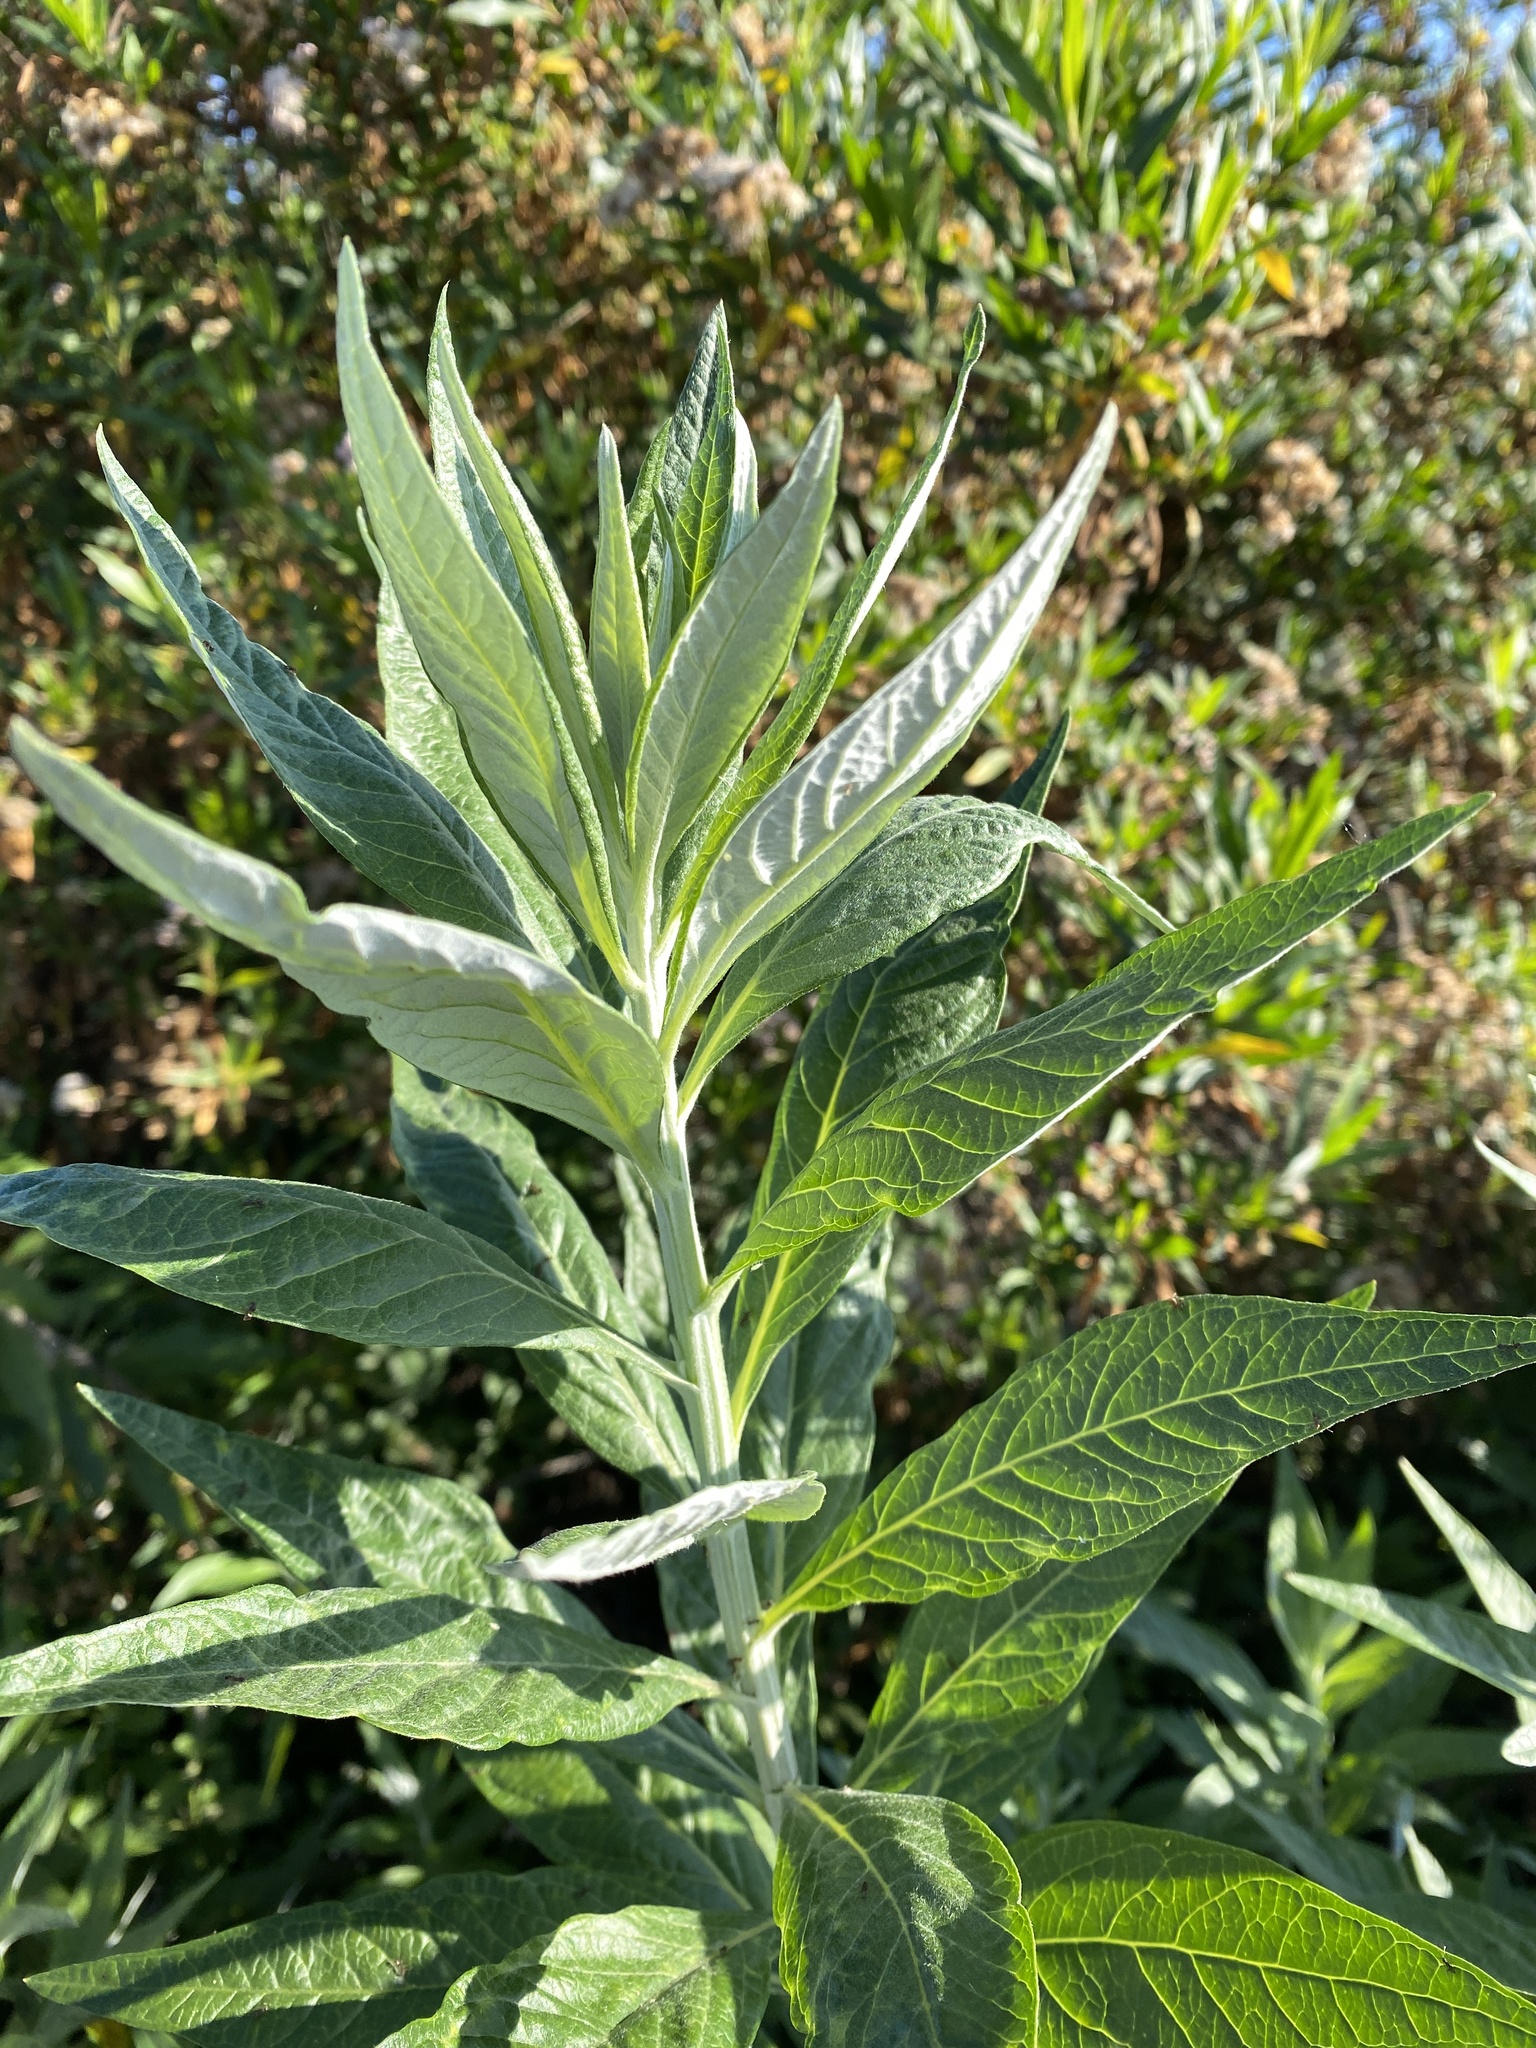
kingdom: Plantae
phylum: Tracheophyta
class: Magnoliopsida
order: Asterales
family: Asteraceae
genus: Artemisia
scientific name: Artemisia douglasiana
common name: Northwest mugwort
